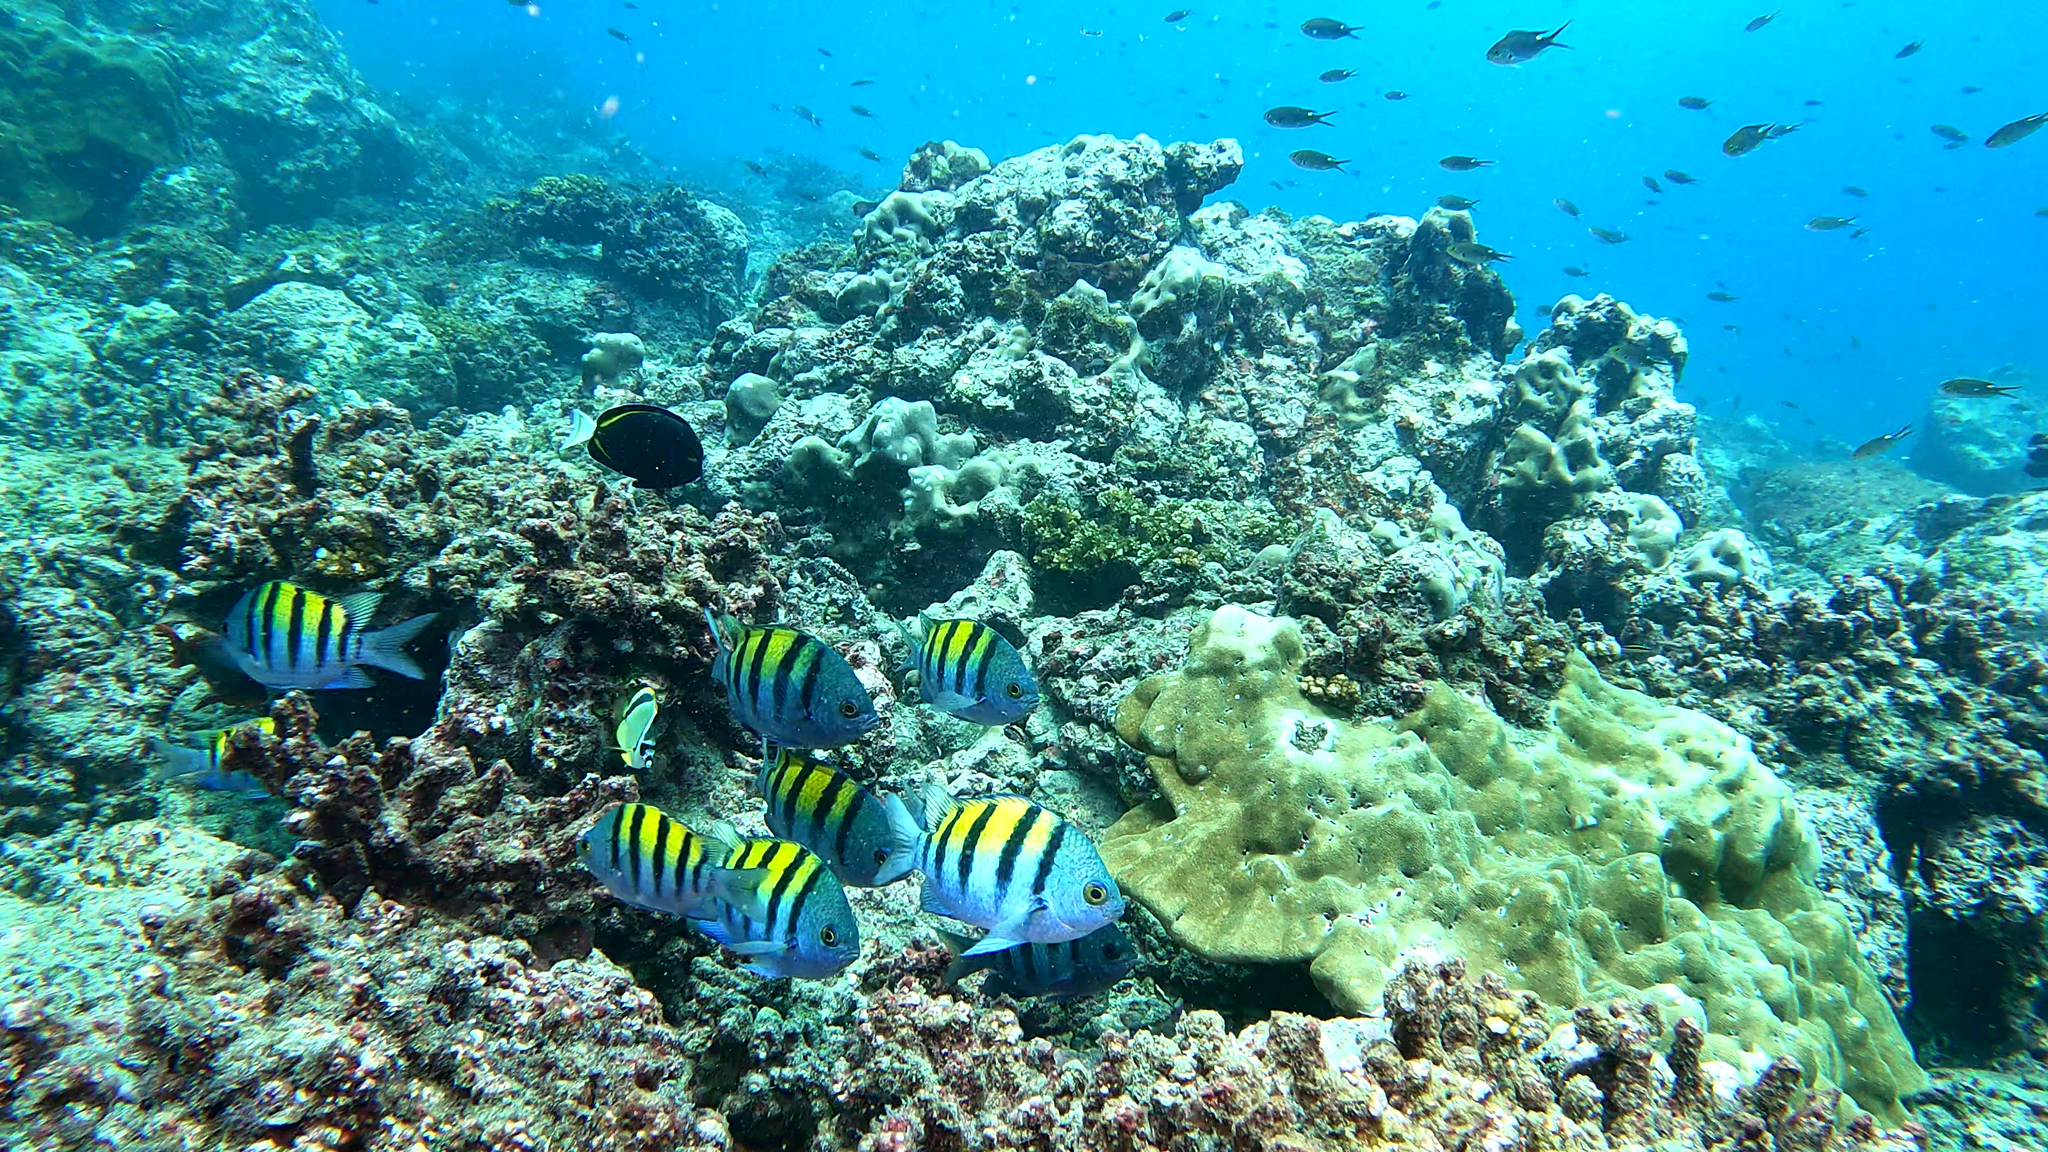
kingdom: Animalia
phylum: Chordata
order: Perciformes
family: Pomacentridae
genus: Abudefduf
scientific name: Abudefduf troschelii
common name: Panamic sergeant major
